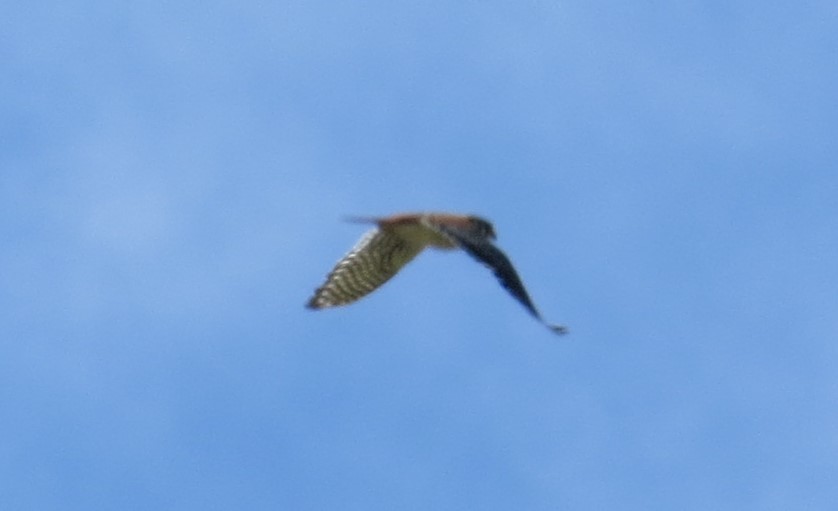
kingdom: Animalia
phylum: Chordata
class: Aves
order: Falconiformes
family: Falconidae
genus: Falco
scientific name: Falco sparverius
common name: American kestrel
